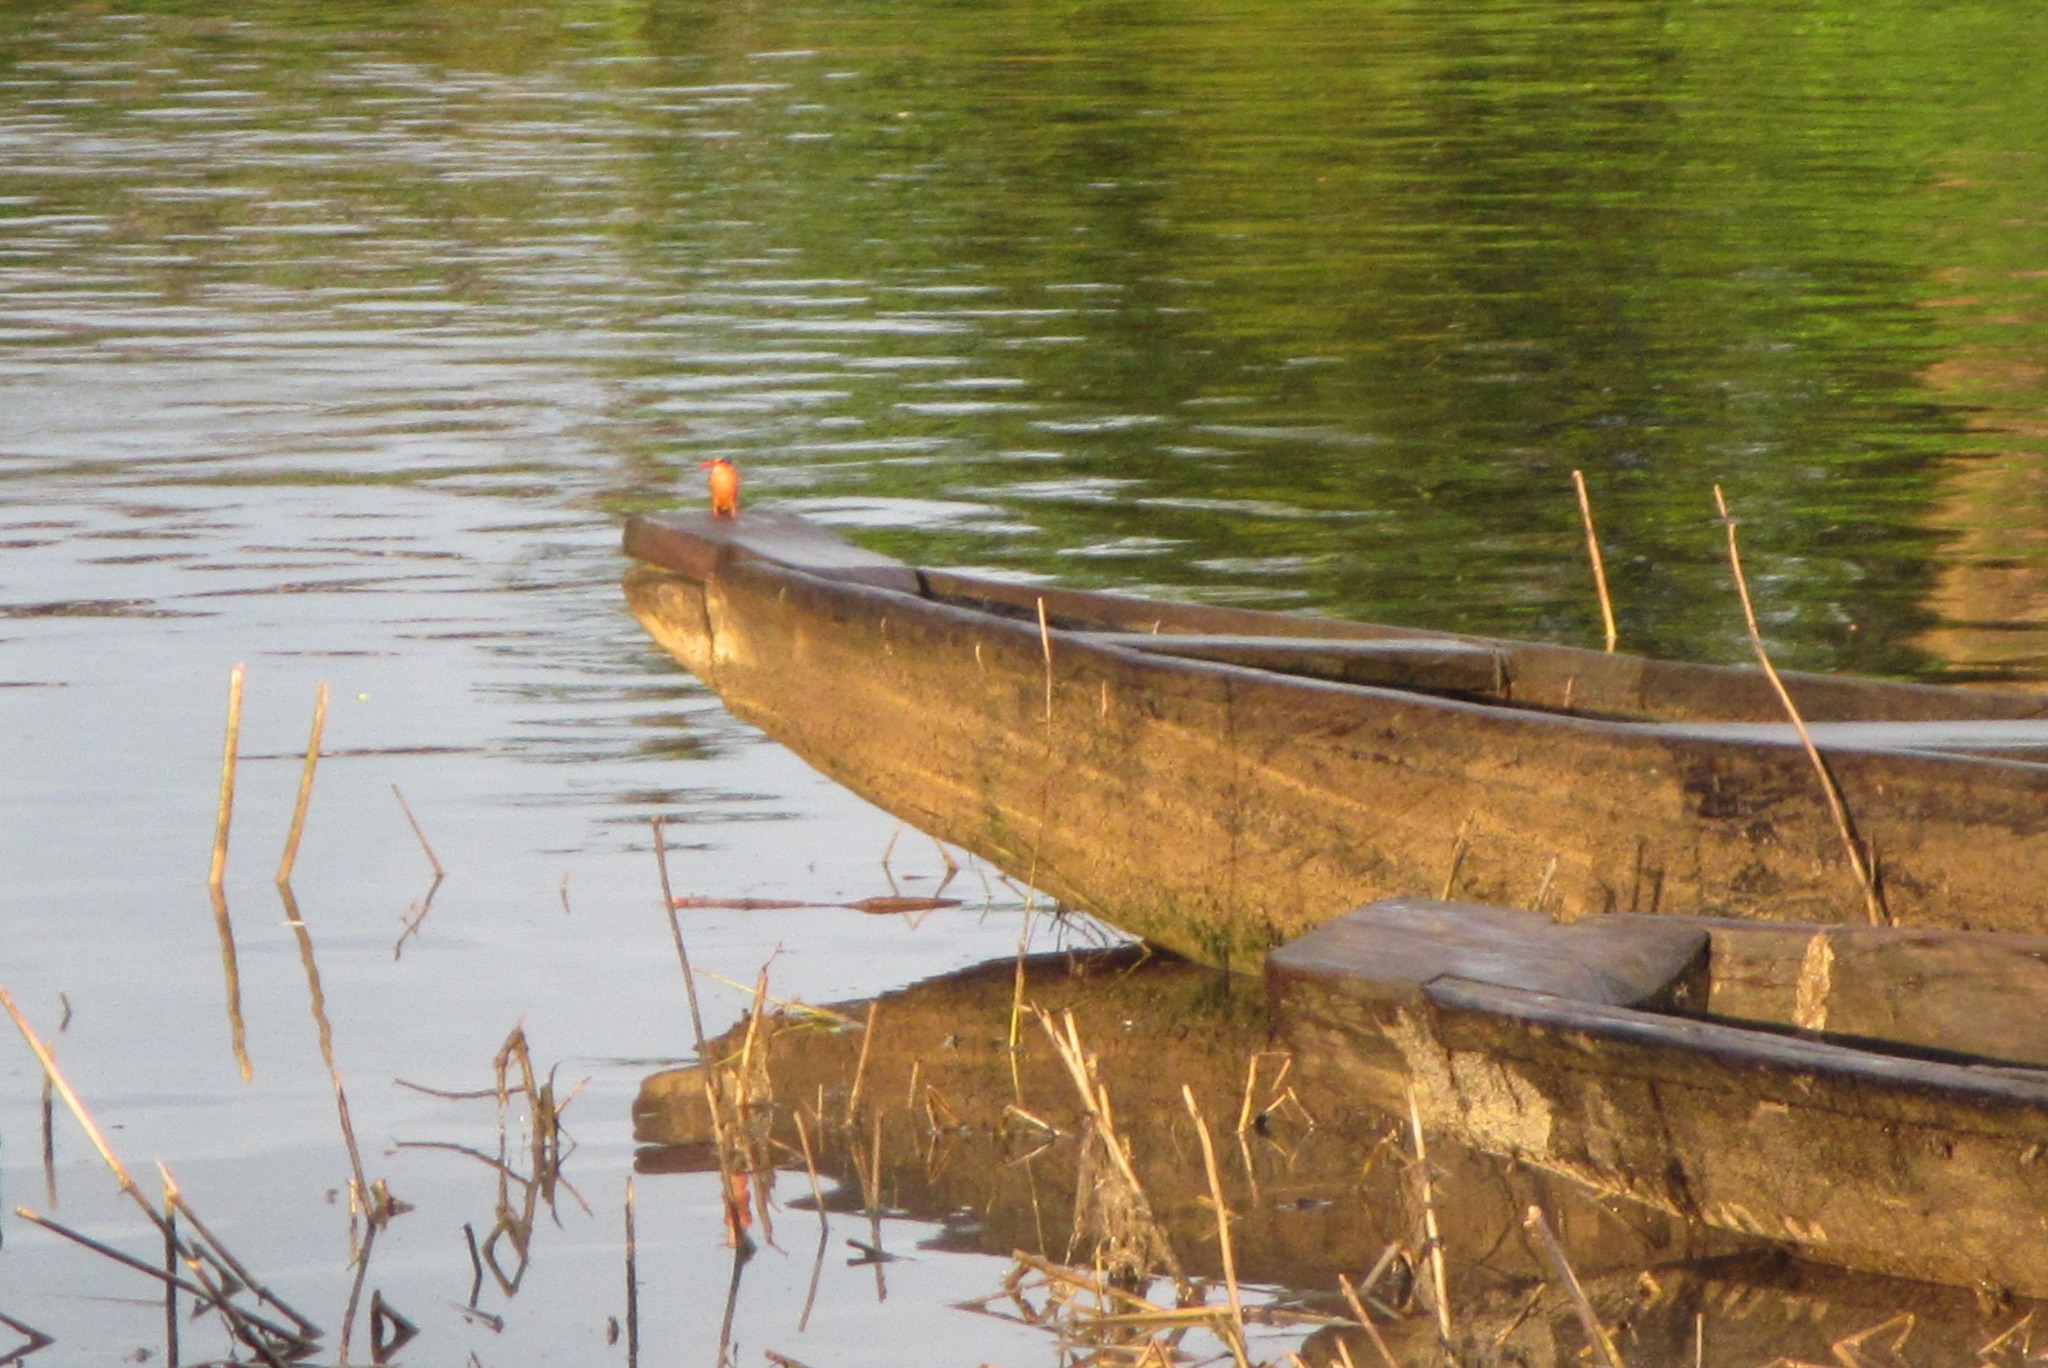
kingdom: Animalia
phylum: Chordata
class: Aves
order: Coraciiformes
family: Alcedinidae
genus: Corythornis
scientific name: Corythornis cristatus
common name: Malachite kingfisher
